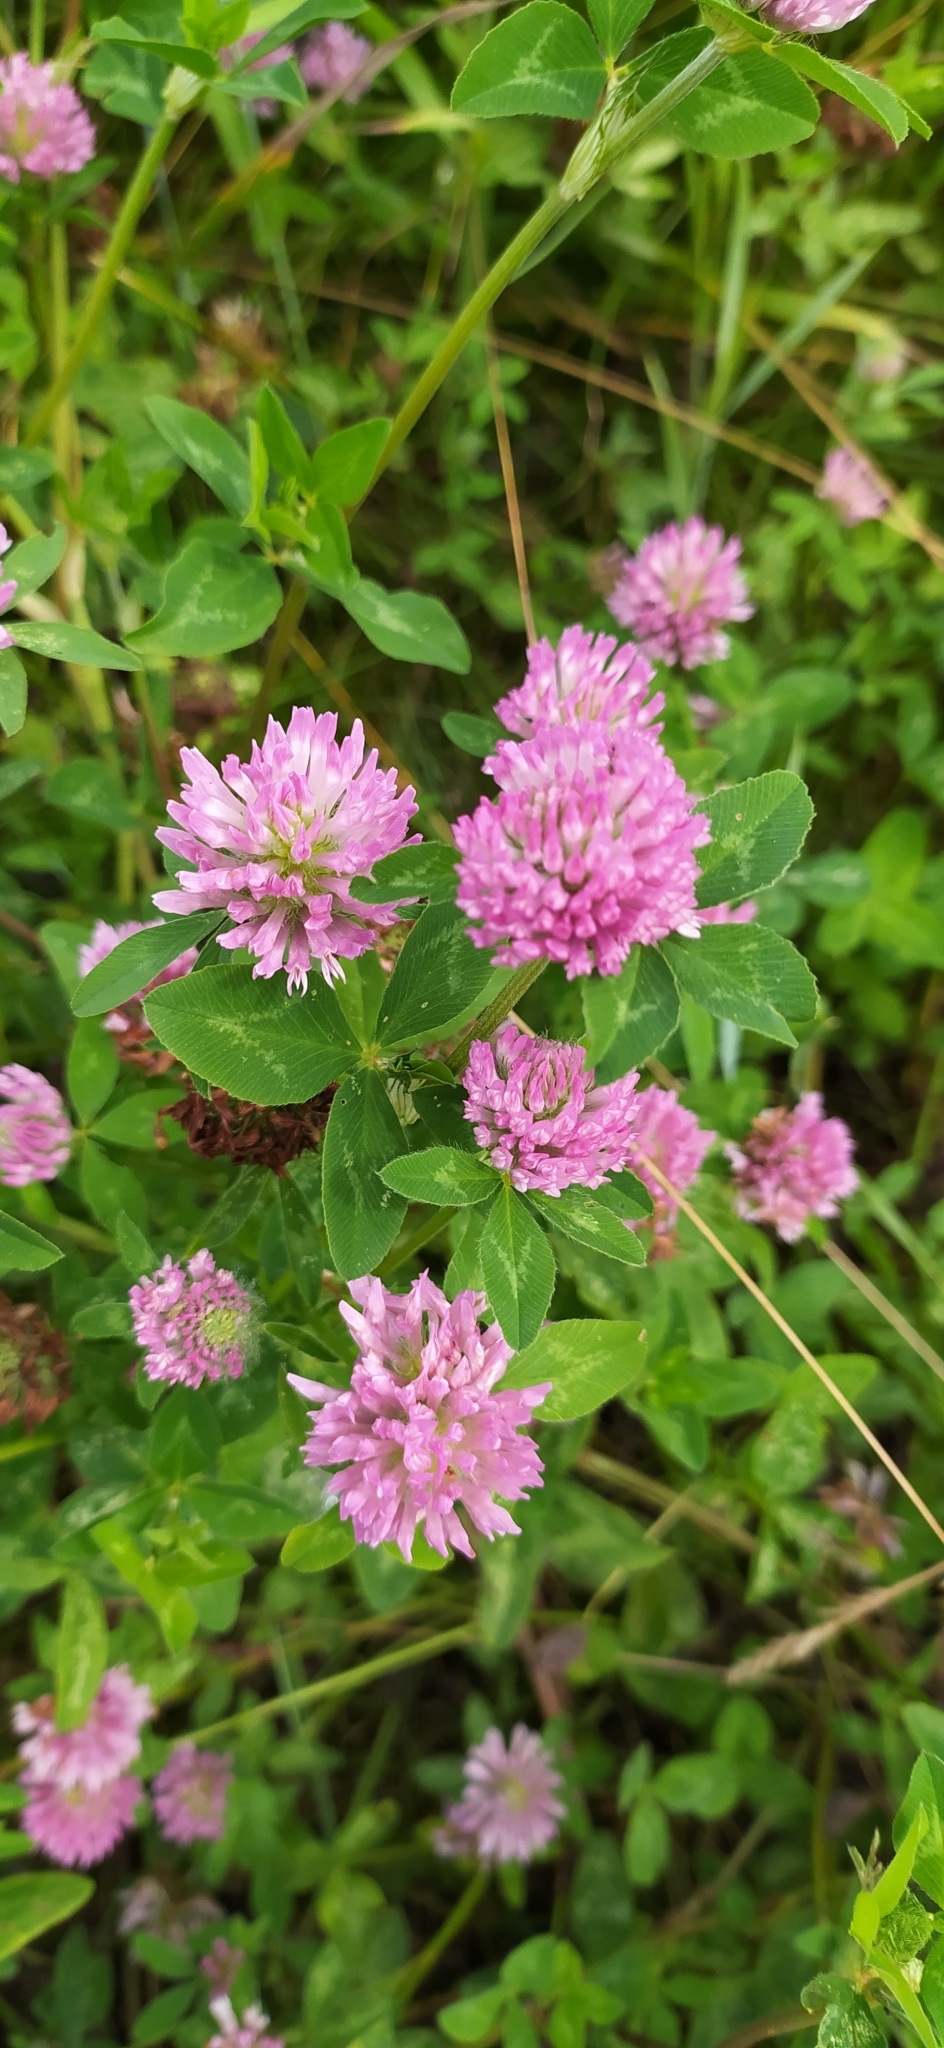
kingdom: Plantae
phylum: Tracheophyta
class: Magnoliopsida
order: Fabales
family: Fabaceae
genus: Trifolium
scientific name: Trifolium pratense
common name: Red clover
